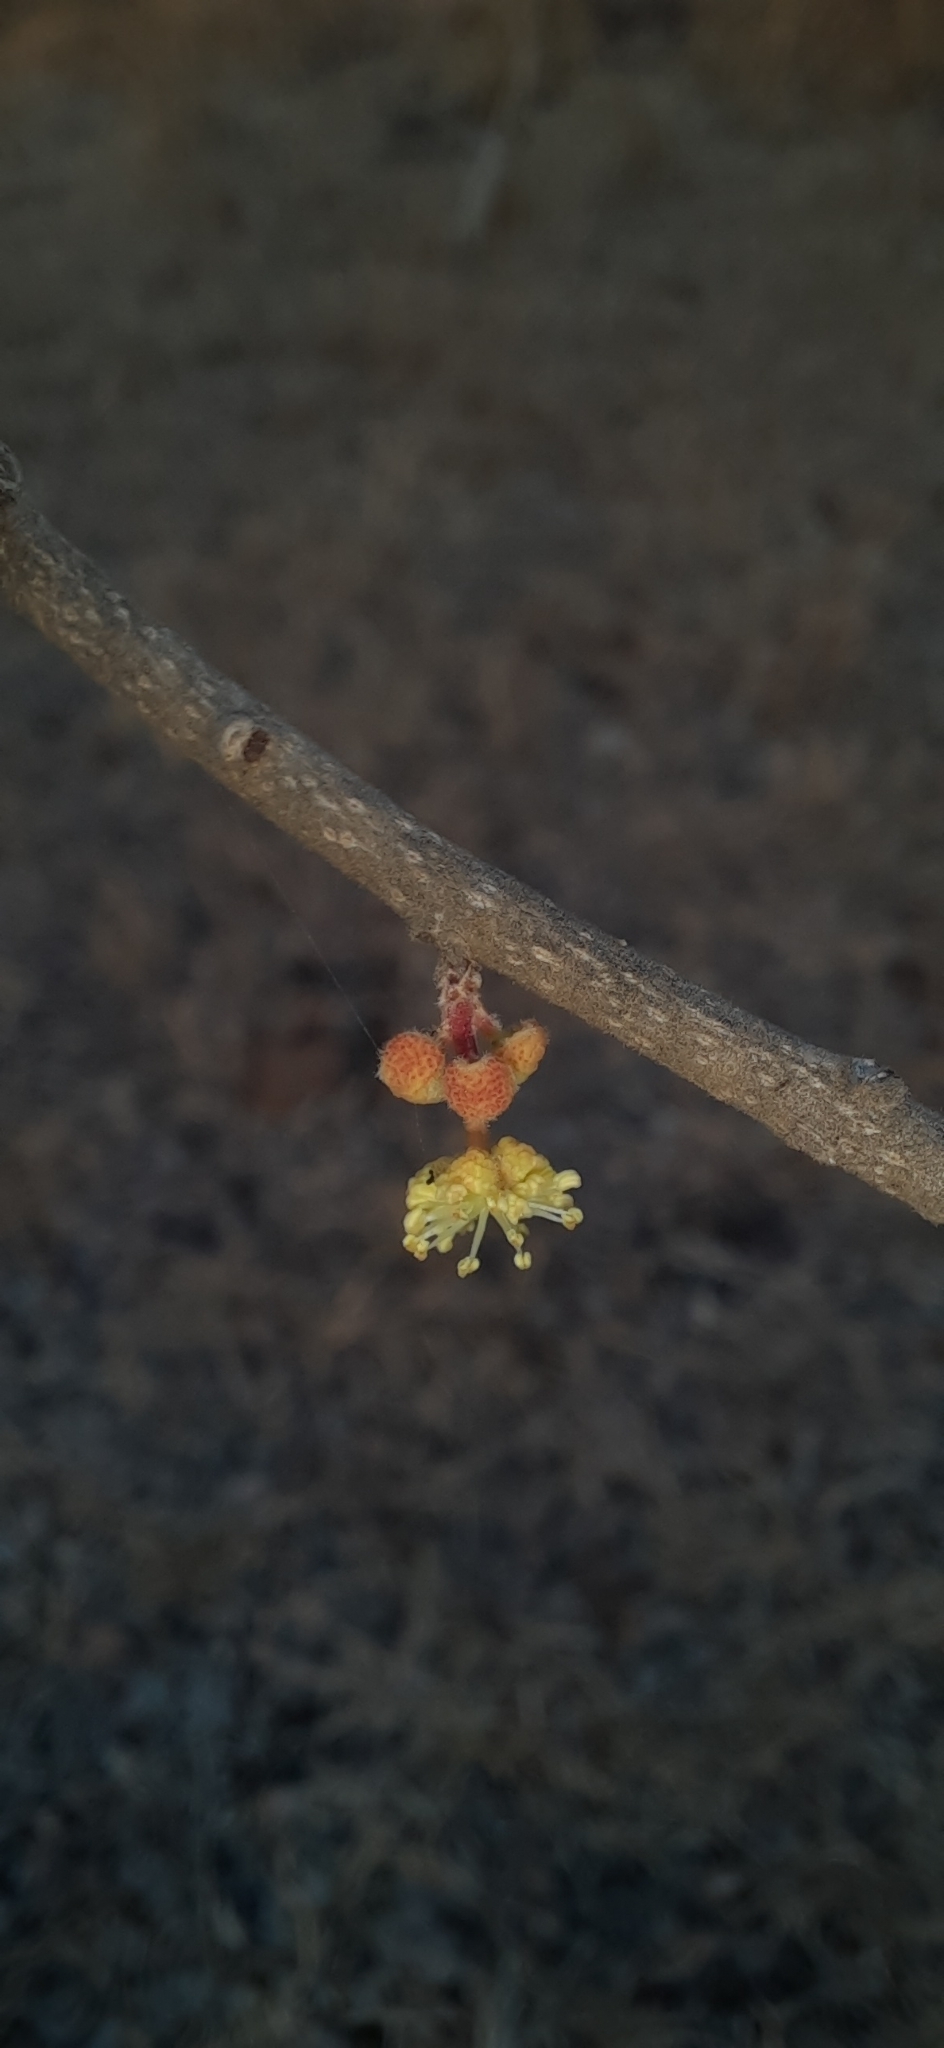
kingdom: Plantae
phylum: Tracheophyta
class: Magnoliopsida
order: Malpighiales
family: Salicaceae
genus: Flacourtia
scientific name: Flacourtia indica
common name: Governor's plum
